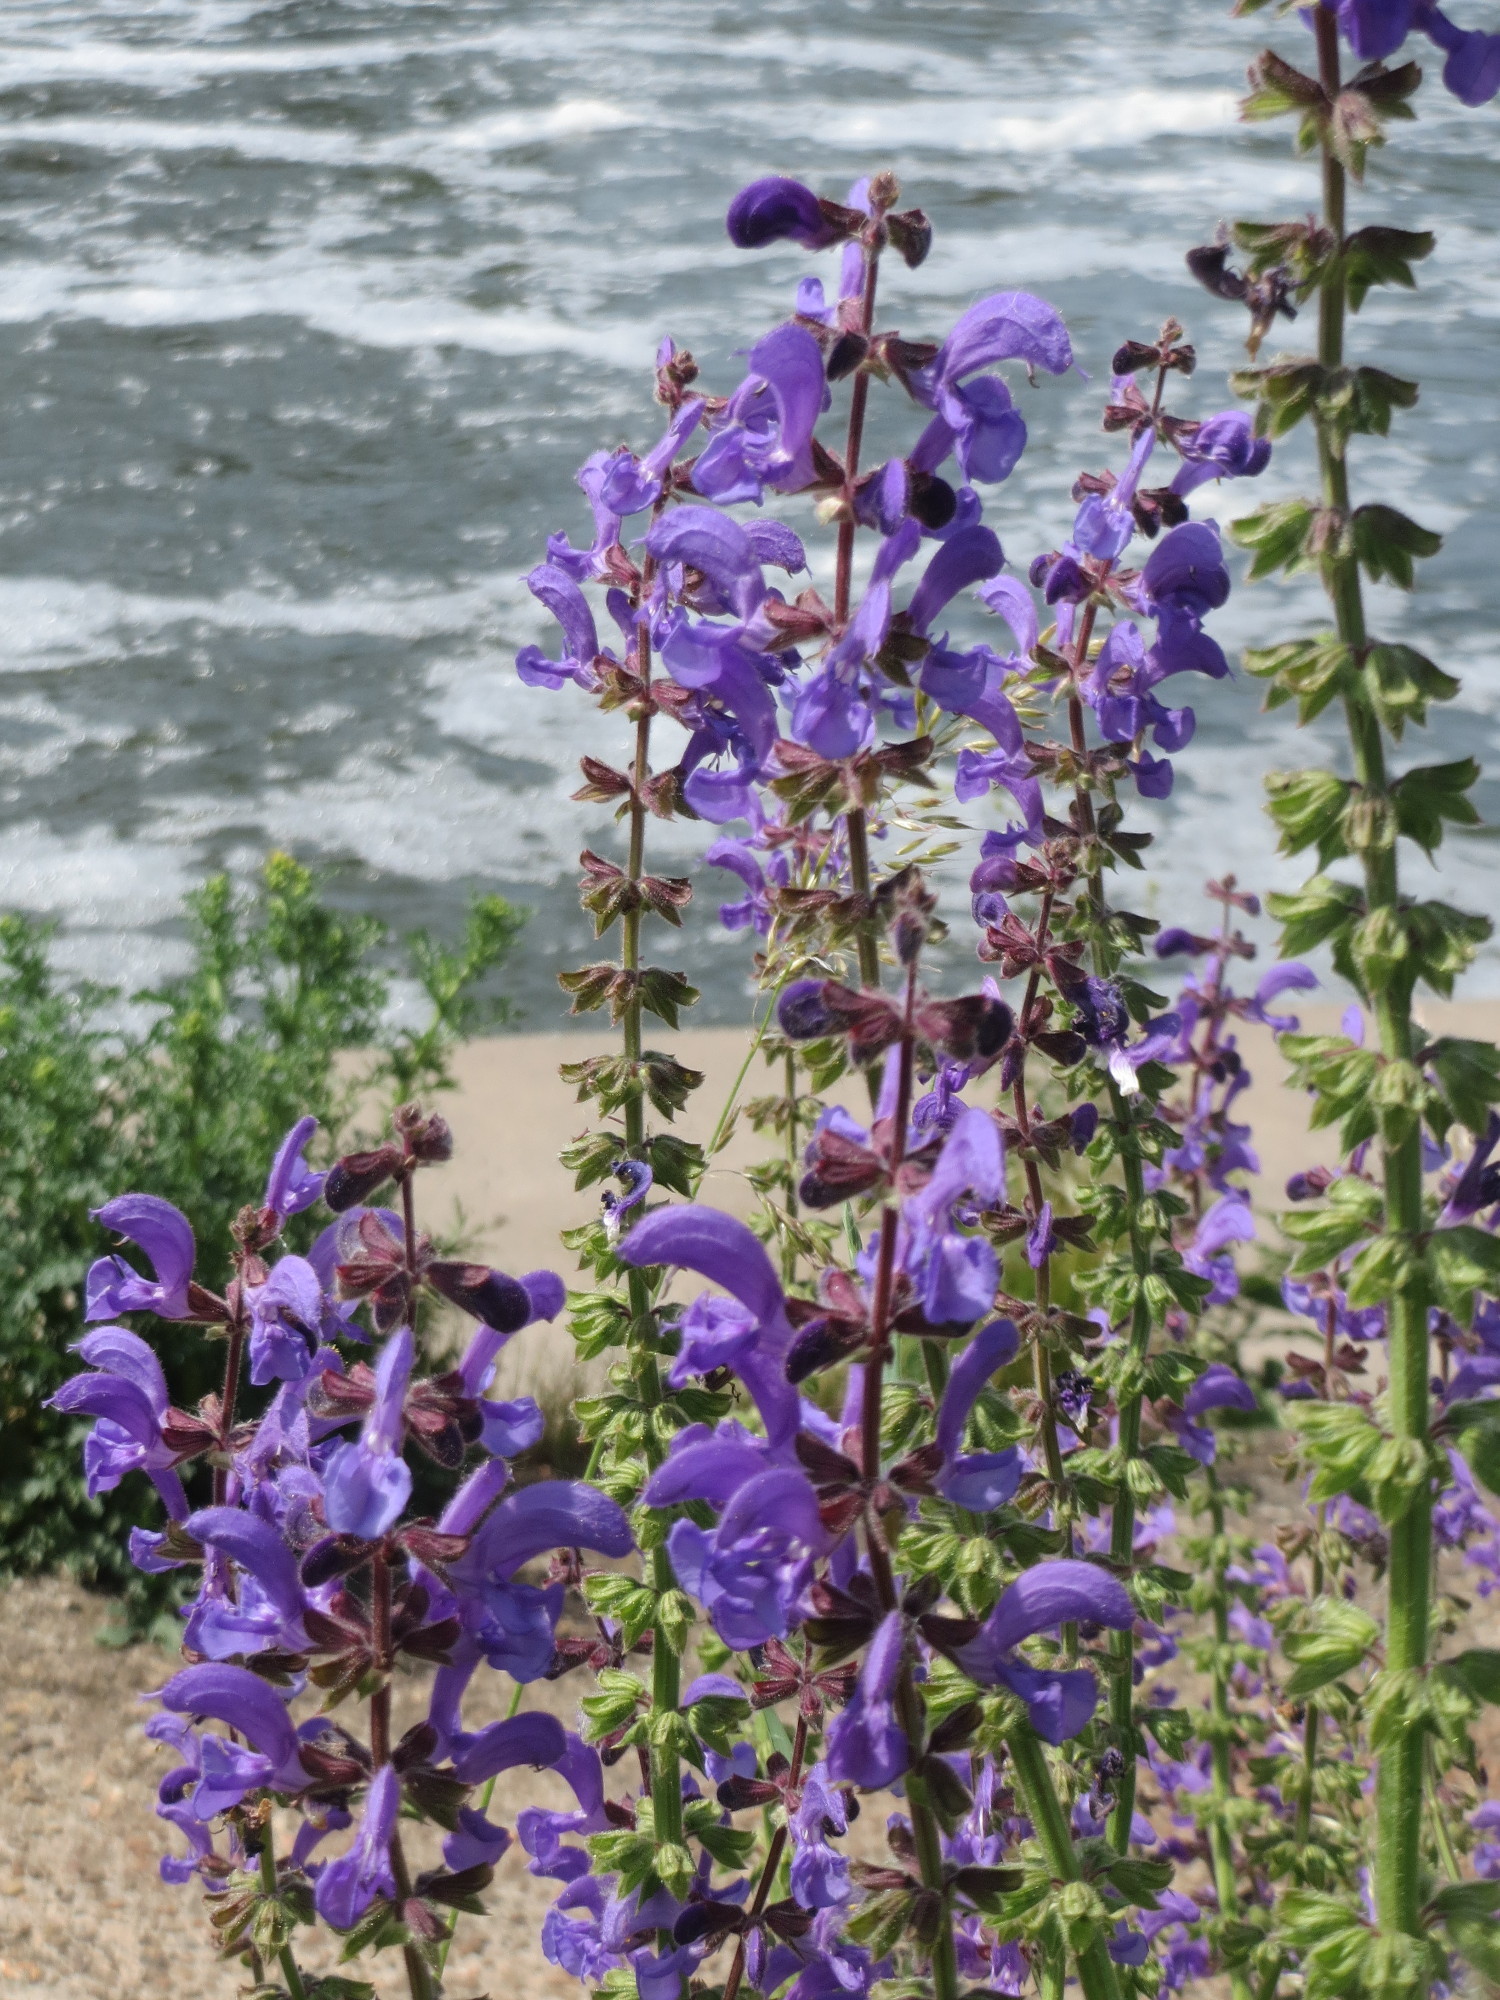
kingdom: Plantae
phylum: Tracheophyta
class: Magnoliopsida
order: Lamiales
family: Lamiaceae
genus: Salvia
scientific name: Salvia pratensis
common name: Meadow sage
